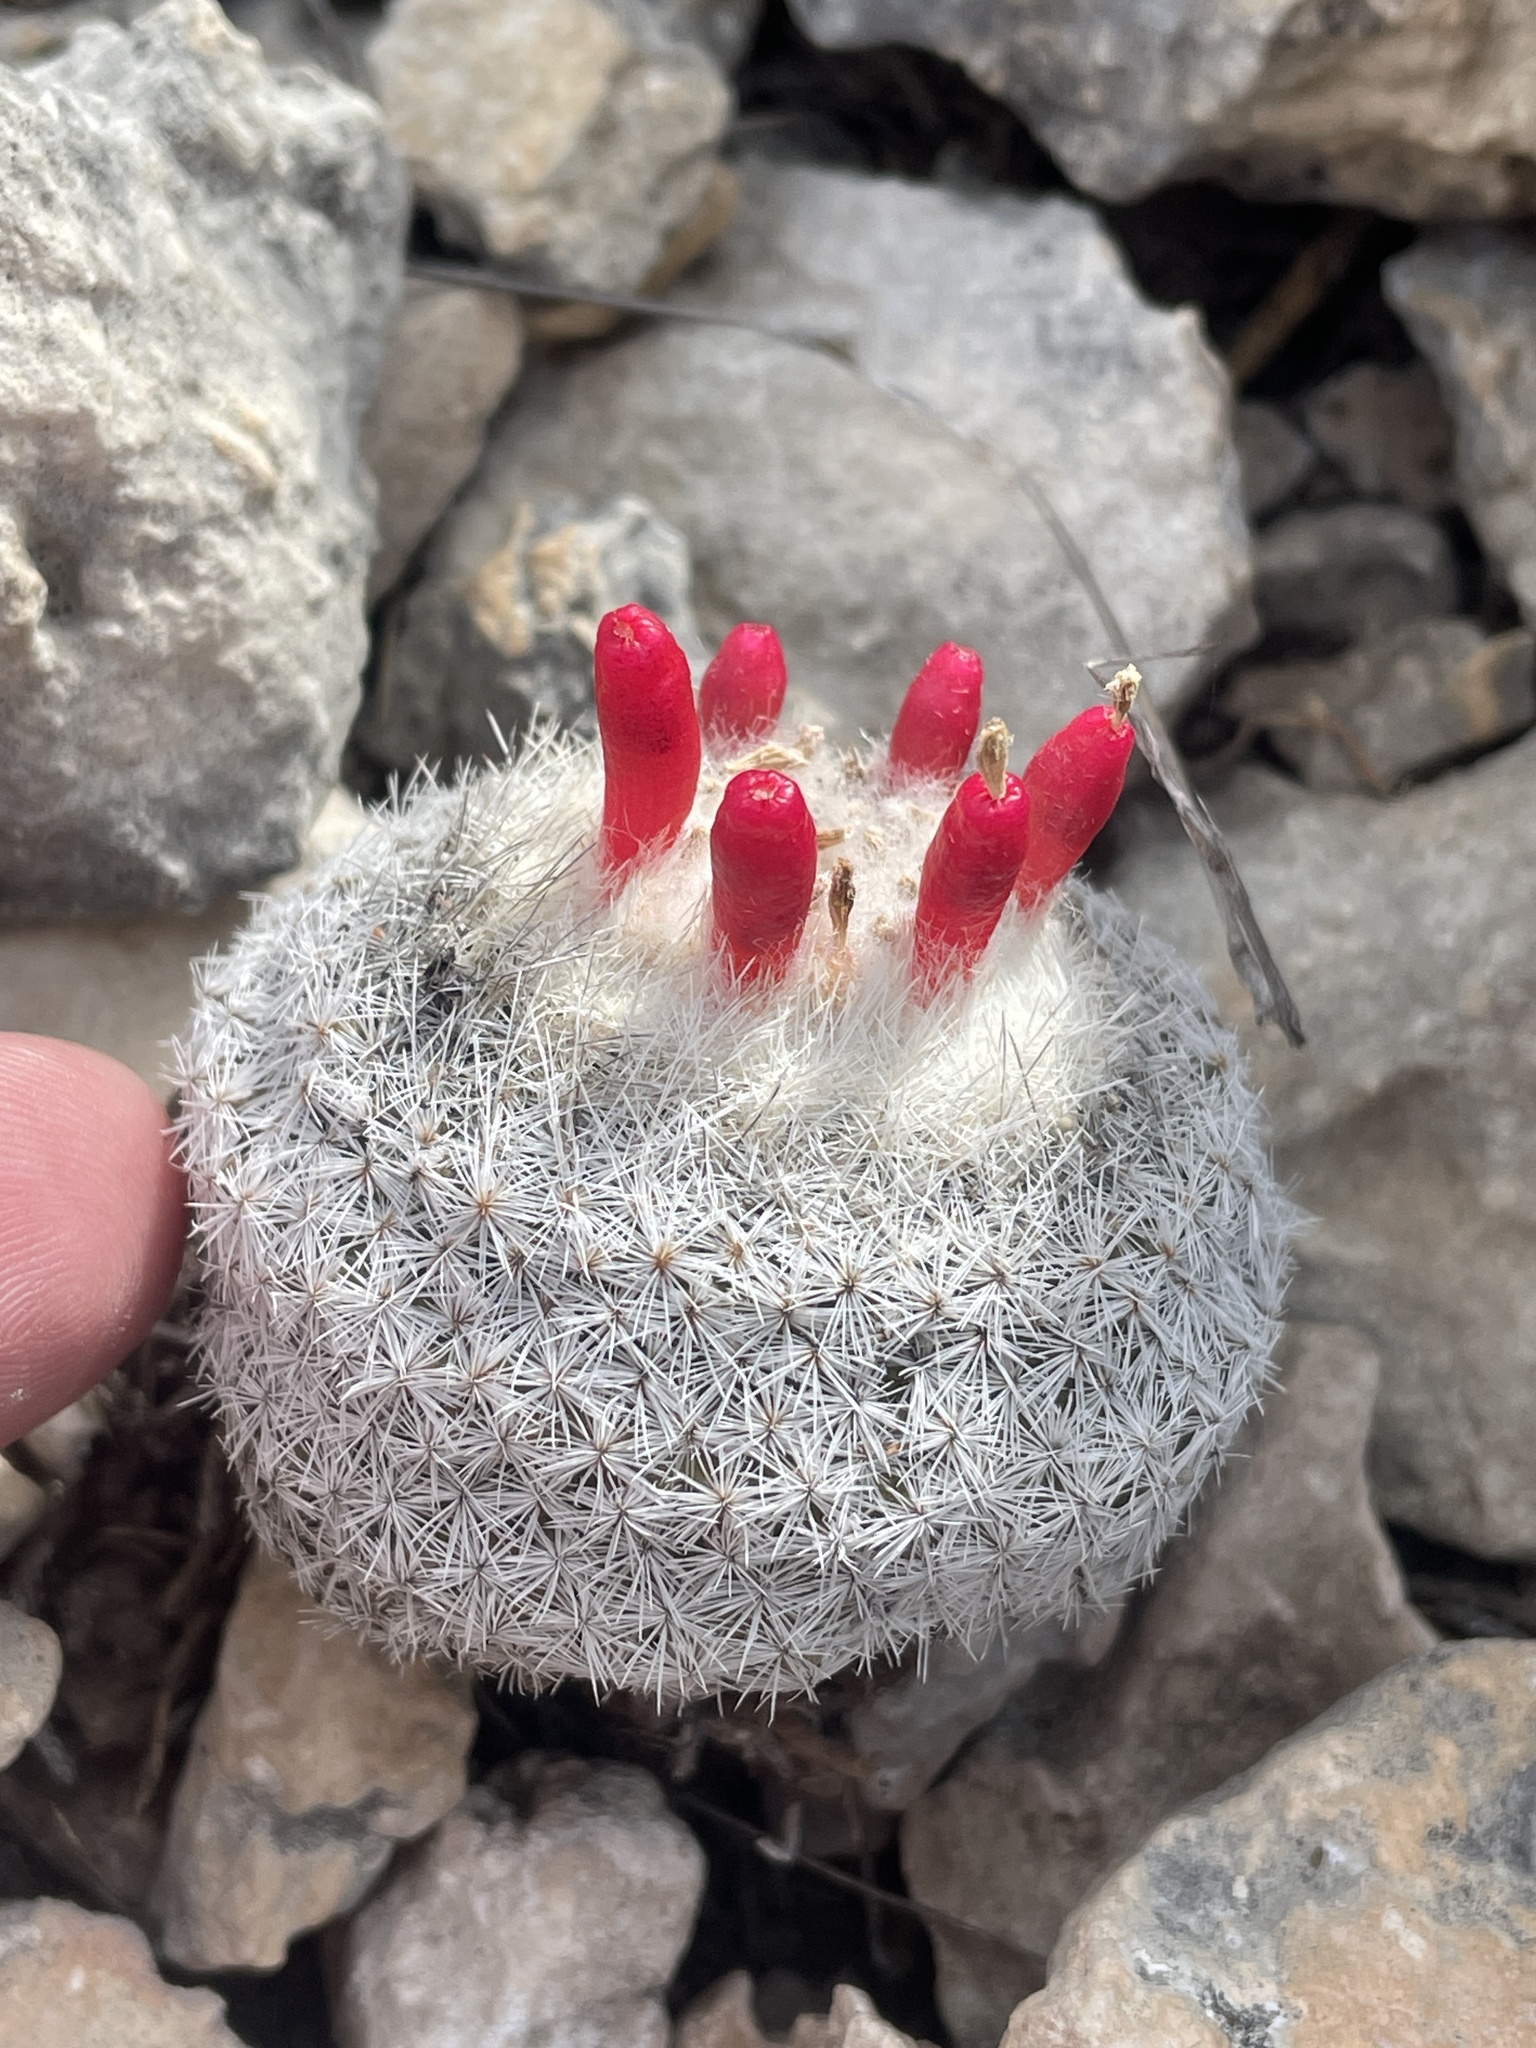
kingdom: Plantae
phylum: Tracheophyta
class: Magnoliopsida
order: Caryophyllales
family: Cactaceae
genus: Epithelantha
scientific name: Epithelantha micromeris
